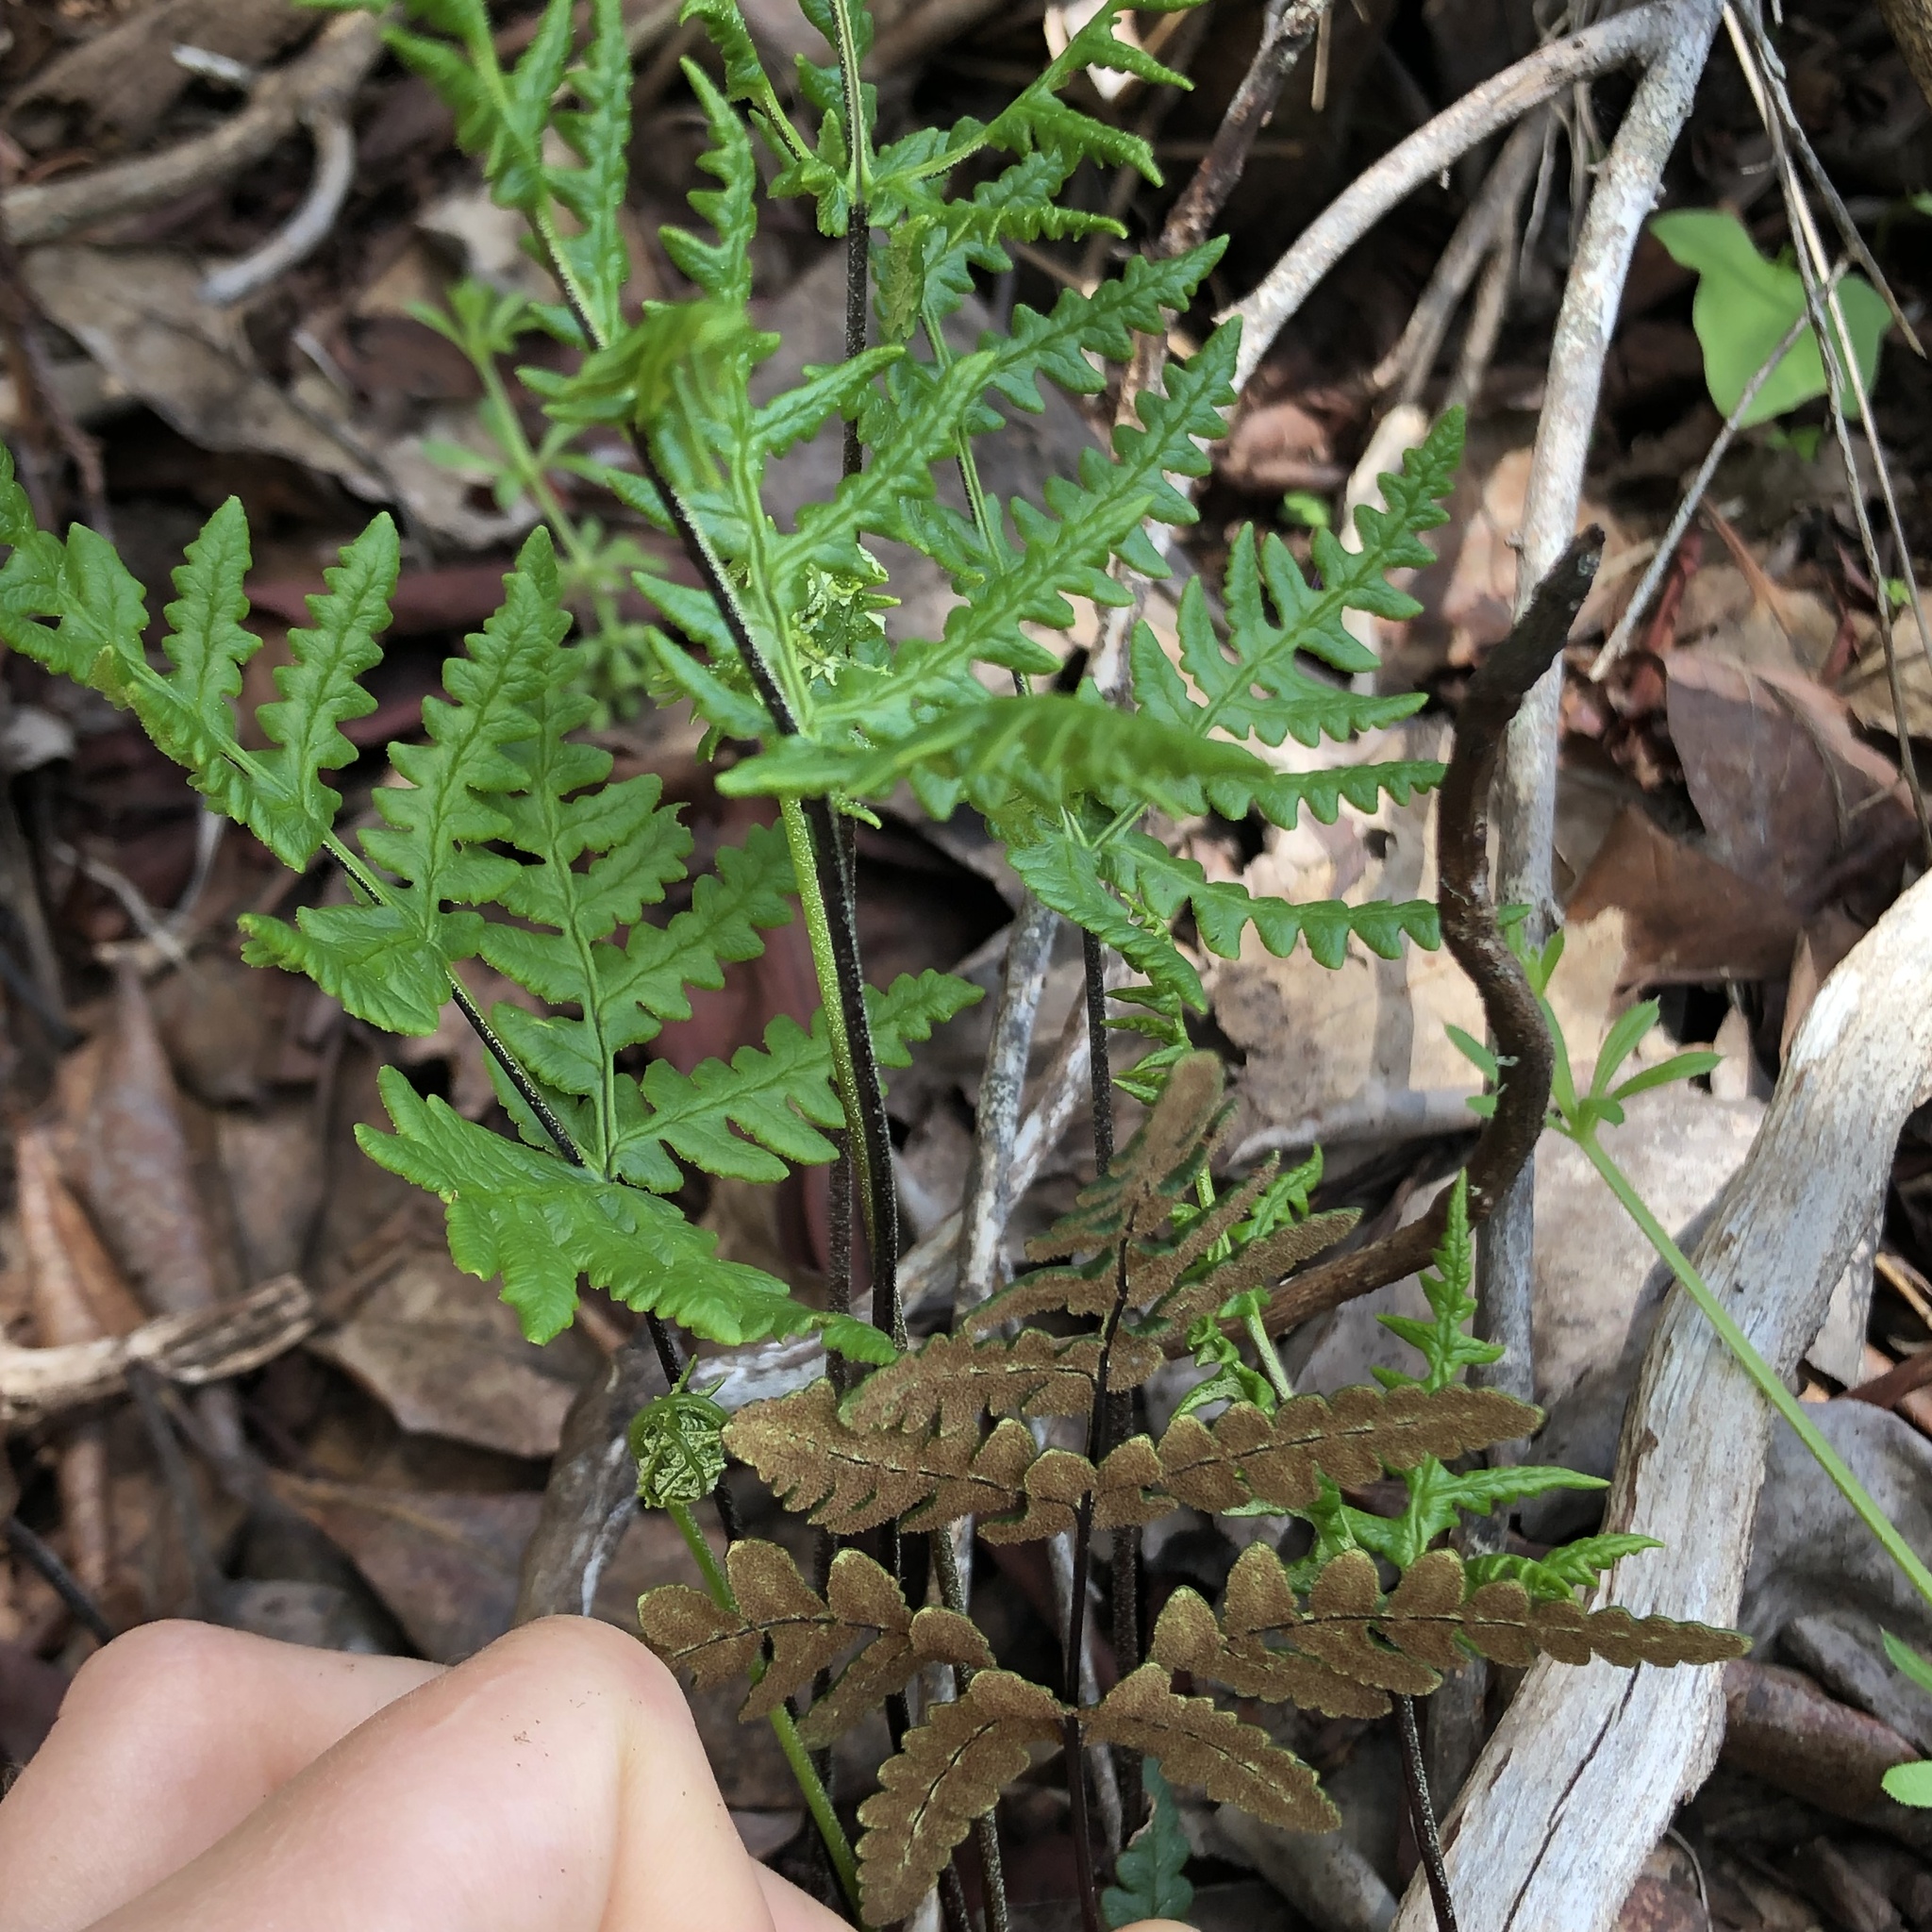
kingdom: Plantae
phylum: Tracheophyta
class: Polypodiopsida
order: Polypodiales
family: Pteridaceae
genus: Pentagramma
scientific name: Pentagramma triangularis
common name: Gold fern
